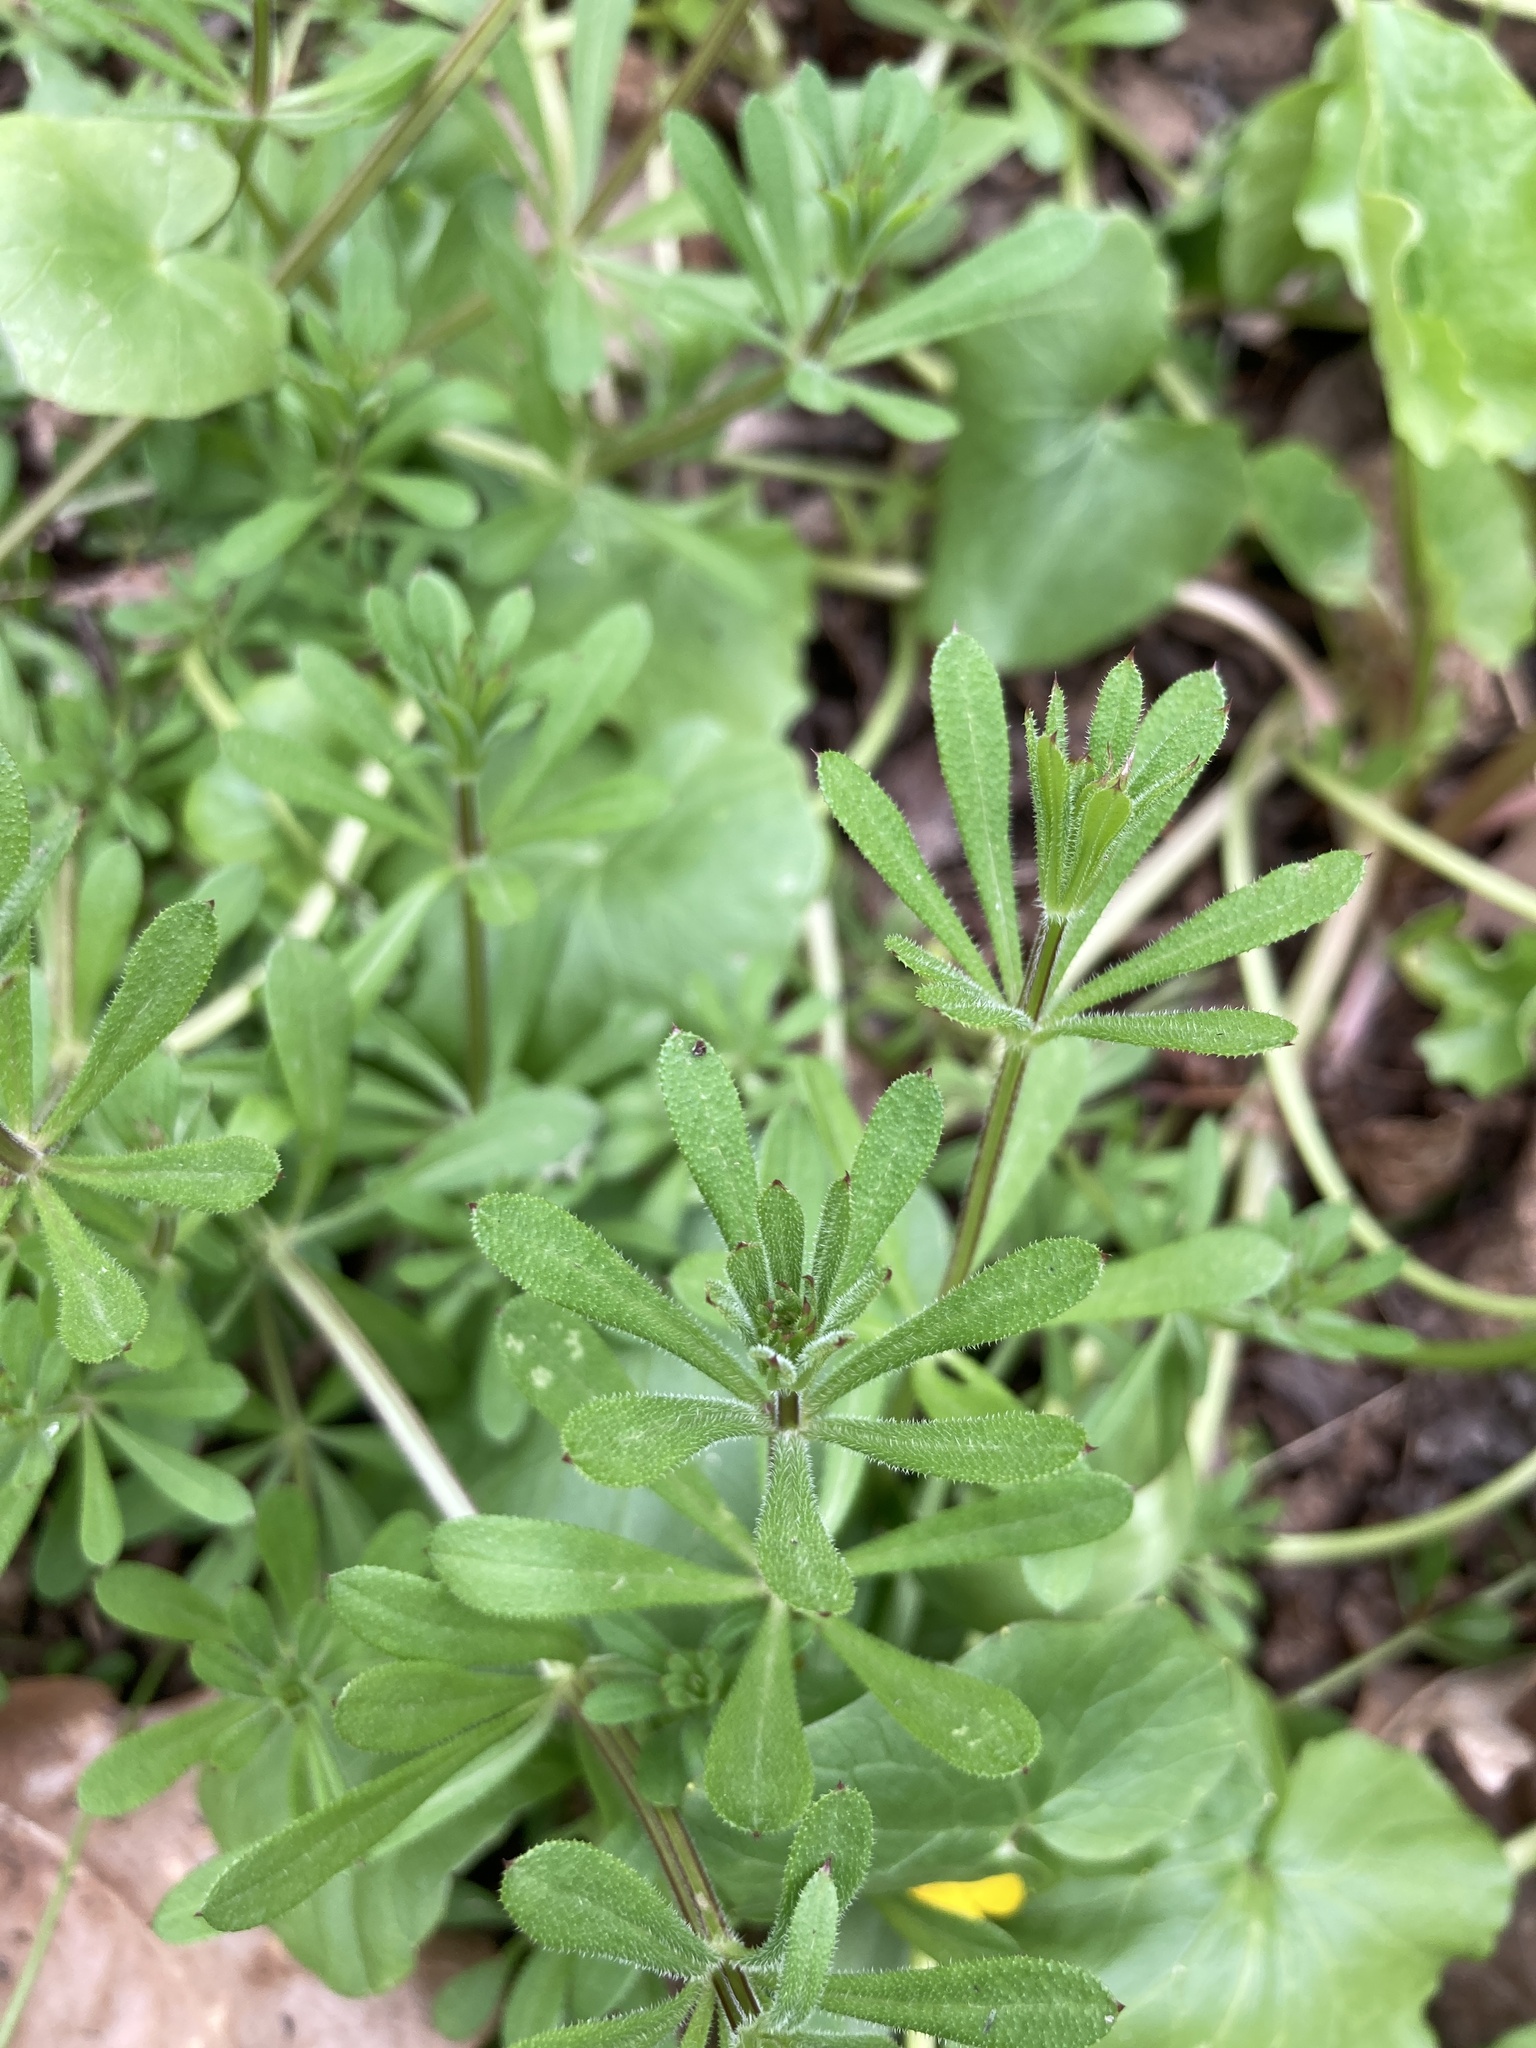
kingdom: Plantae
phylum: Tracheophyta
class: Magnoliopsida
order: Gentianales
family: Rubiaceae
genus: Galium
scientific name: Galium aparine
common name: Cleavers
